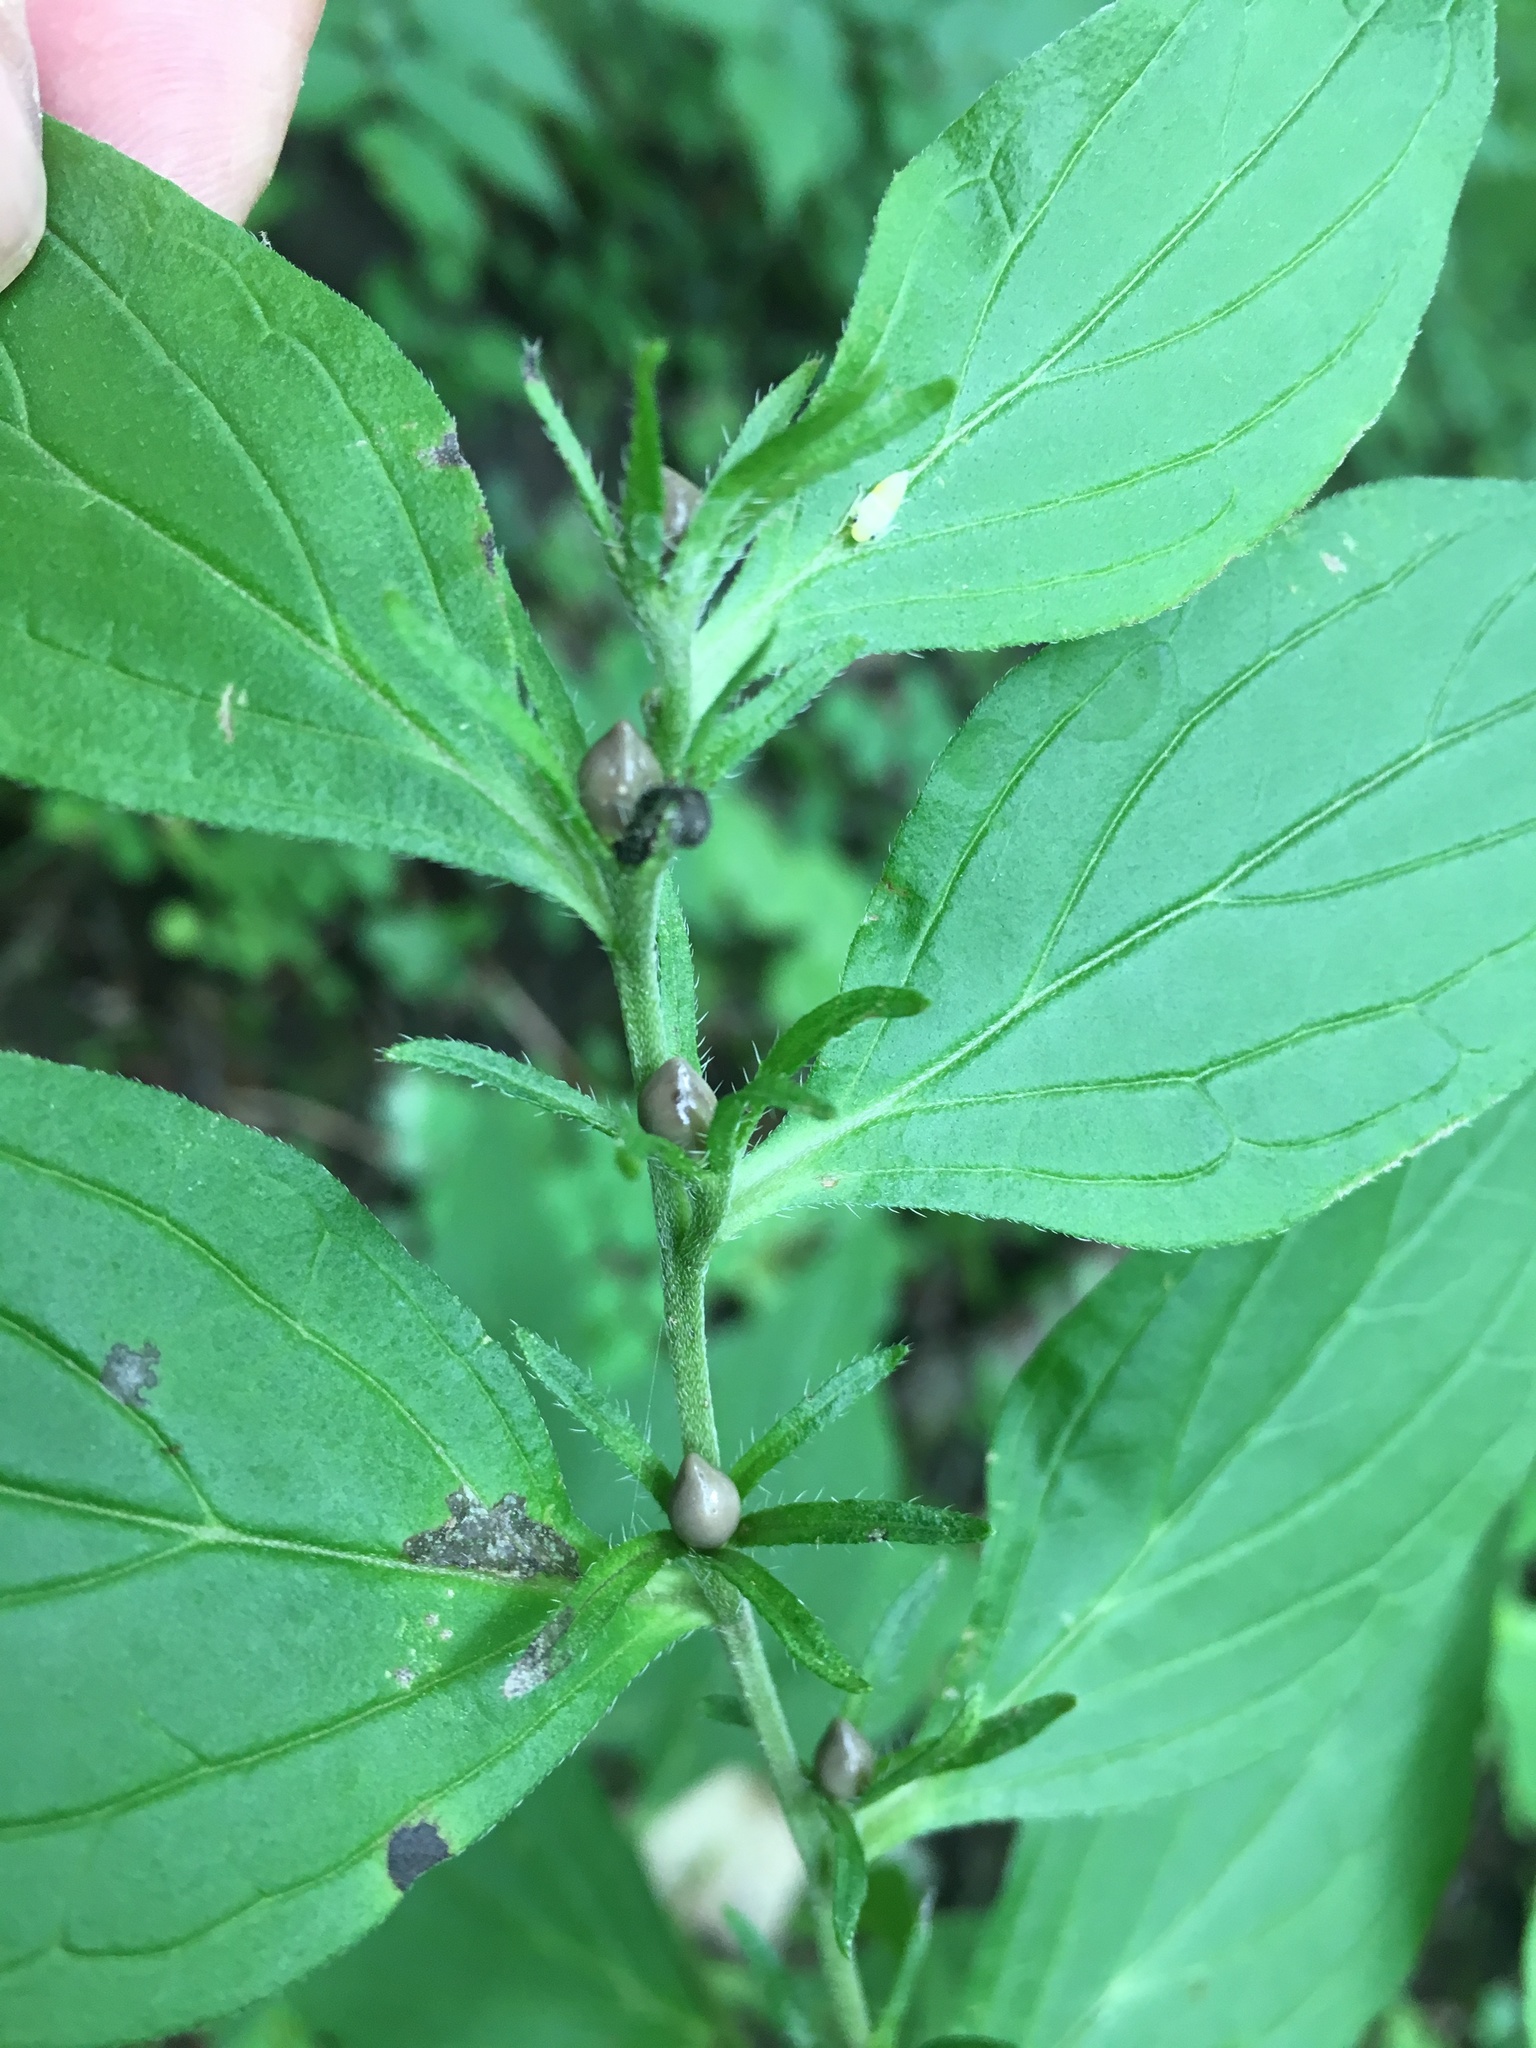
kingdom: Plantae
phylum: Tracheophyta
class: Magnoliopsida
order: Boraginales
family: Boraginaceae
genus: Lithospermum
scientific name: Lithospermum latifolium
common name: American gromwell
